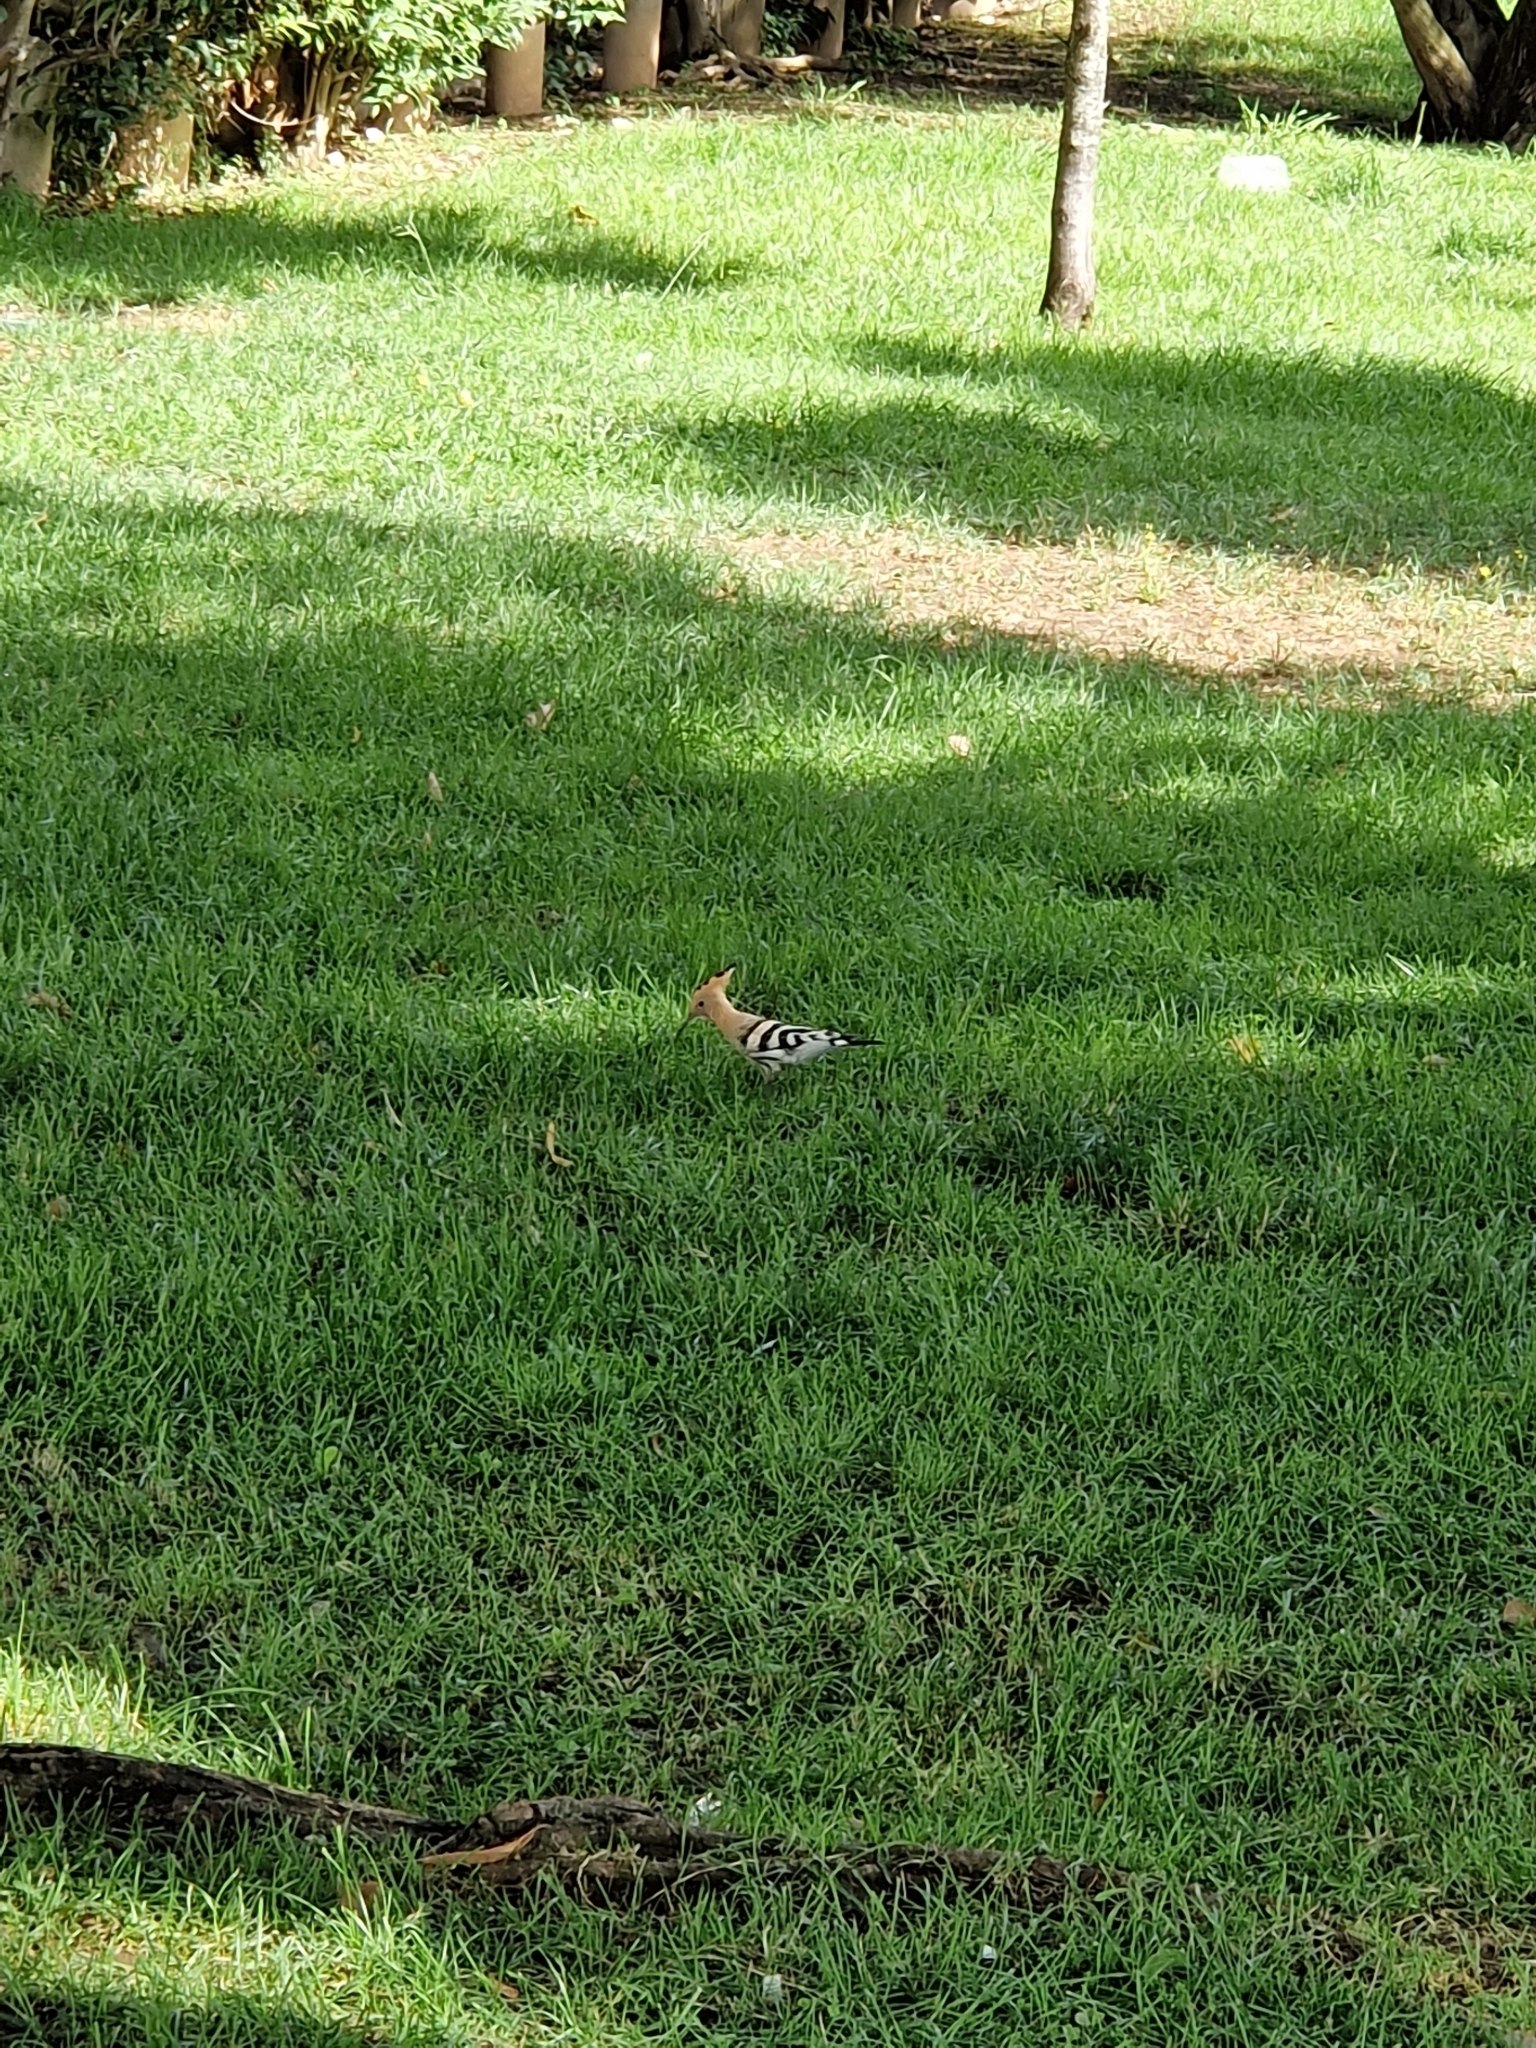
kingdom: Animalia
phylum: Chordata
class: Aves
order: Bucerotiformes
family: Upupidae
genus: Upupa
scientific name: Upupa epops
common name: Eurasian hoopoe
